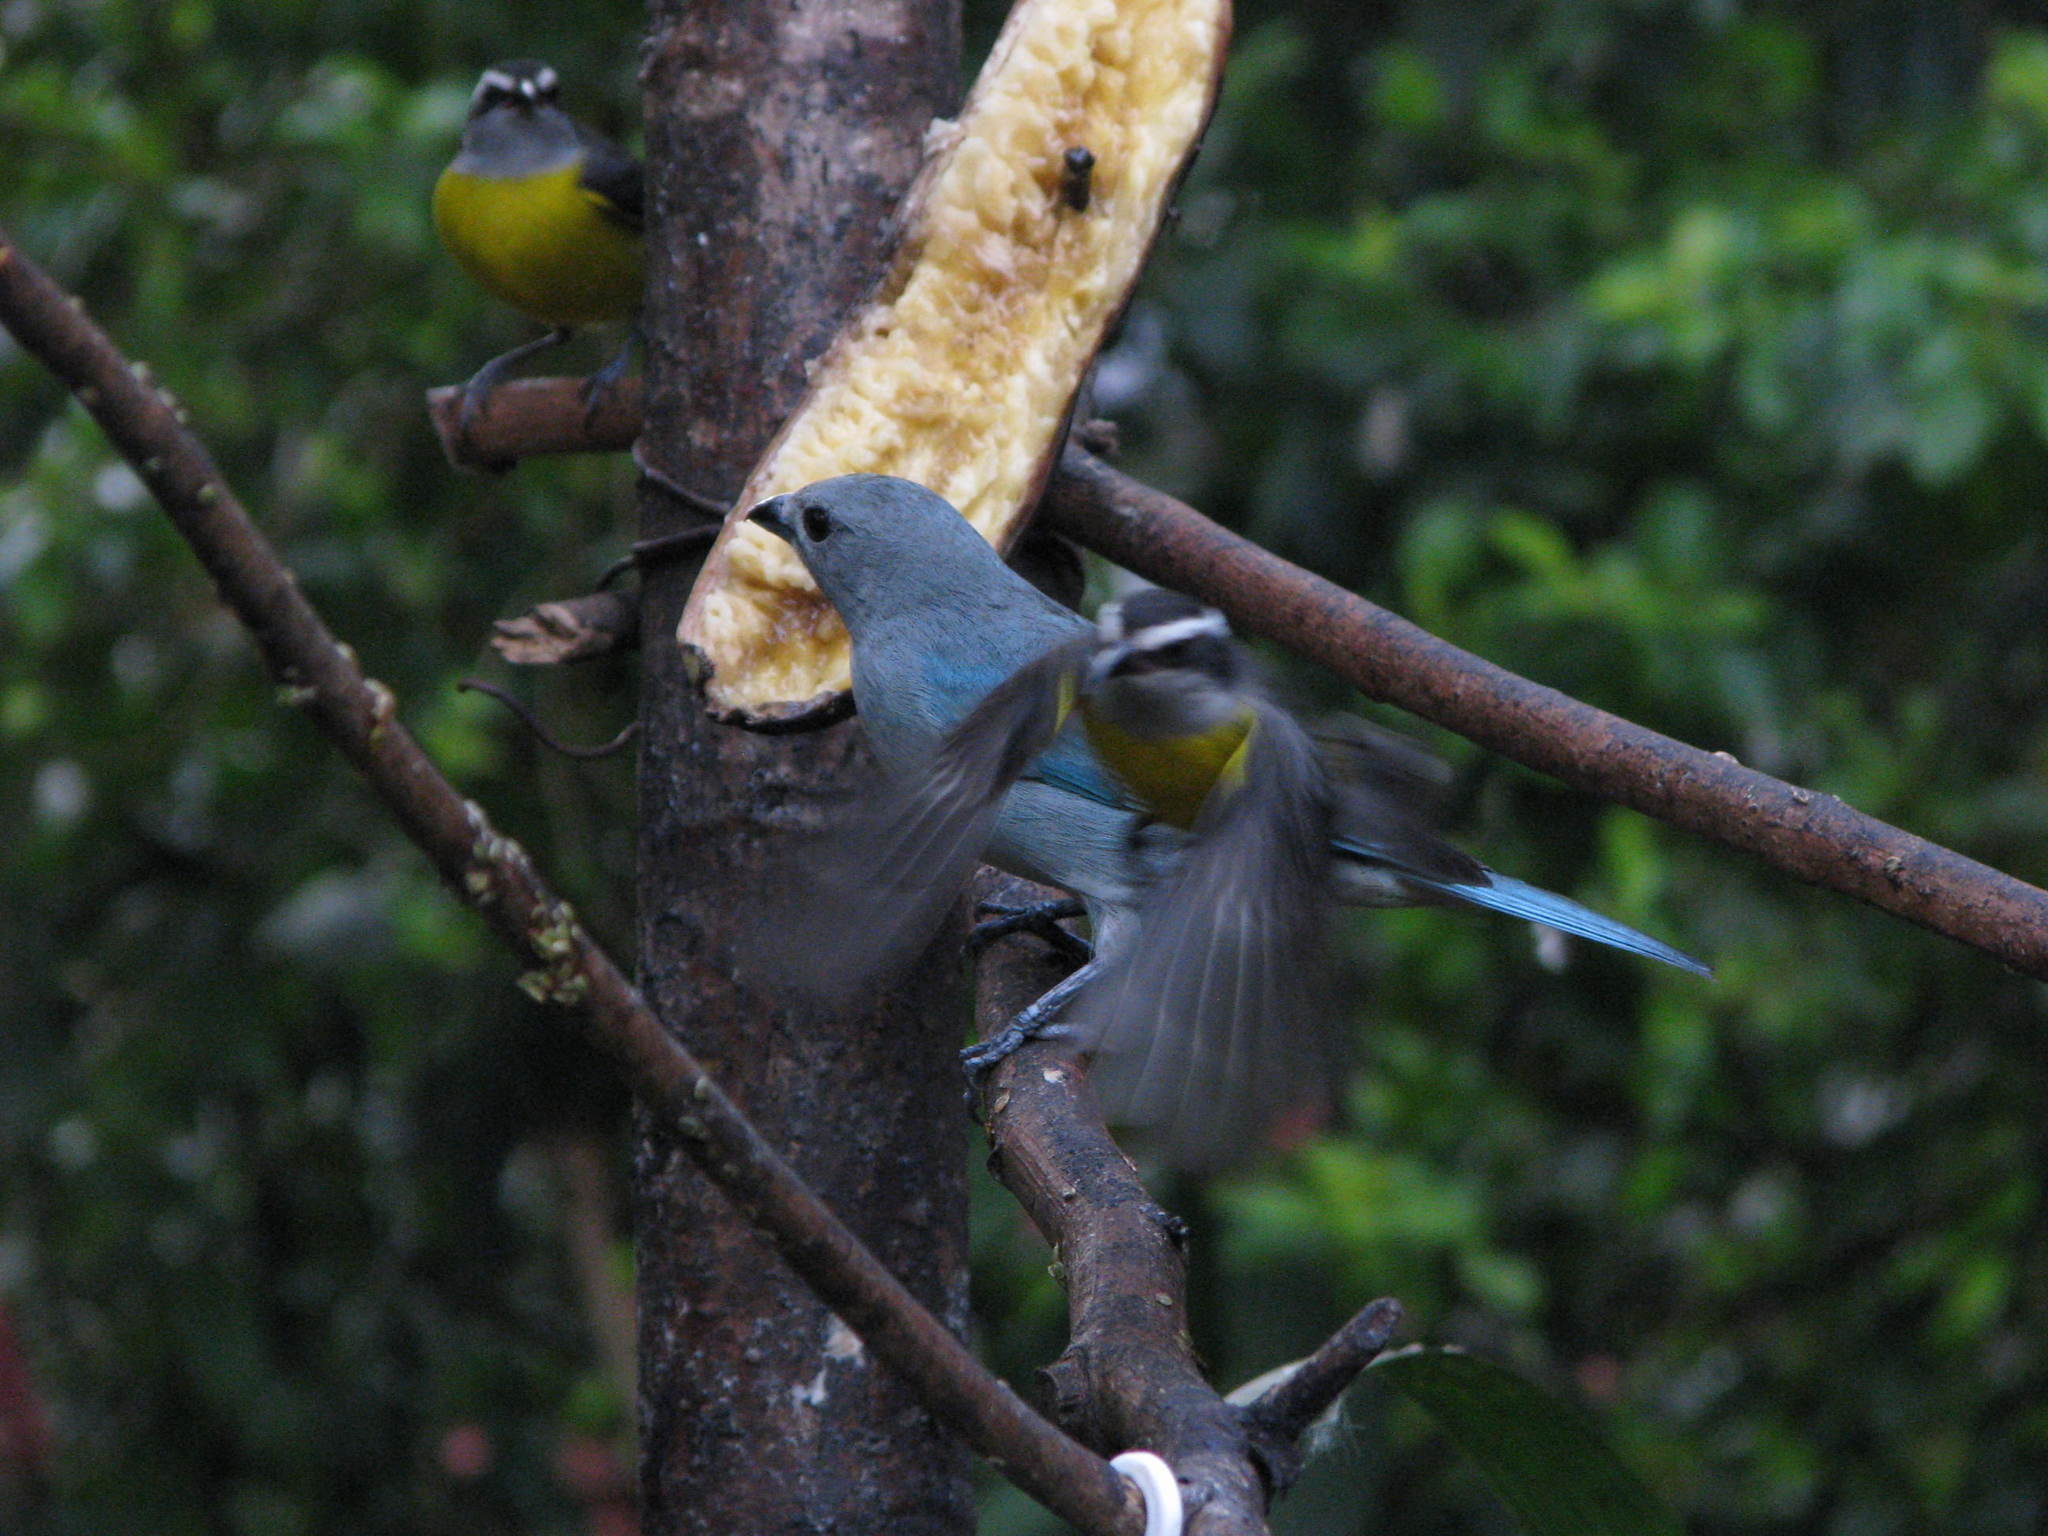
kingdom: Animalia
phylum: Chordata
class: Aves
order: Passeriformes
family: Thraupidae
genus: Thraupis
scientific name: Thraupis sayaca
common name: Sayaca tanager
